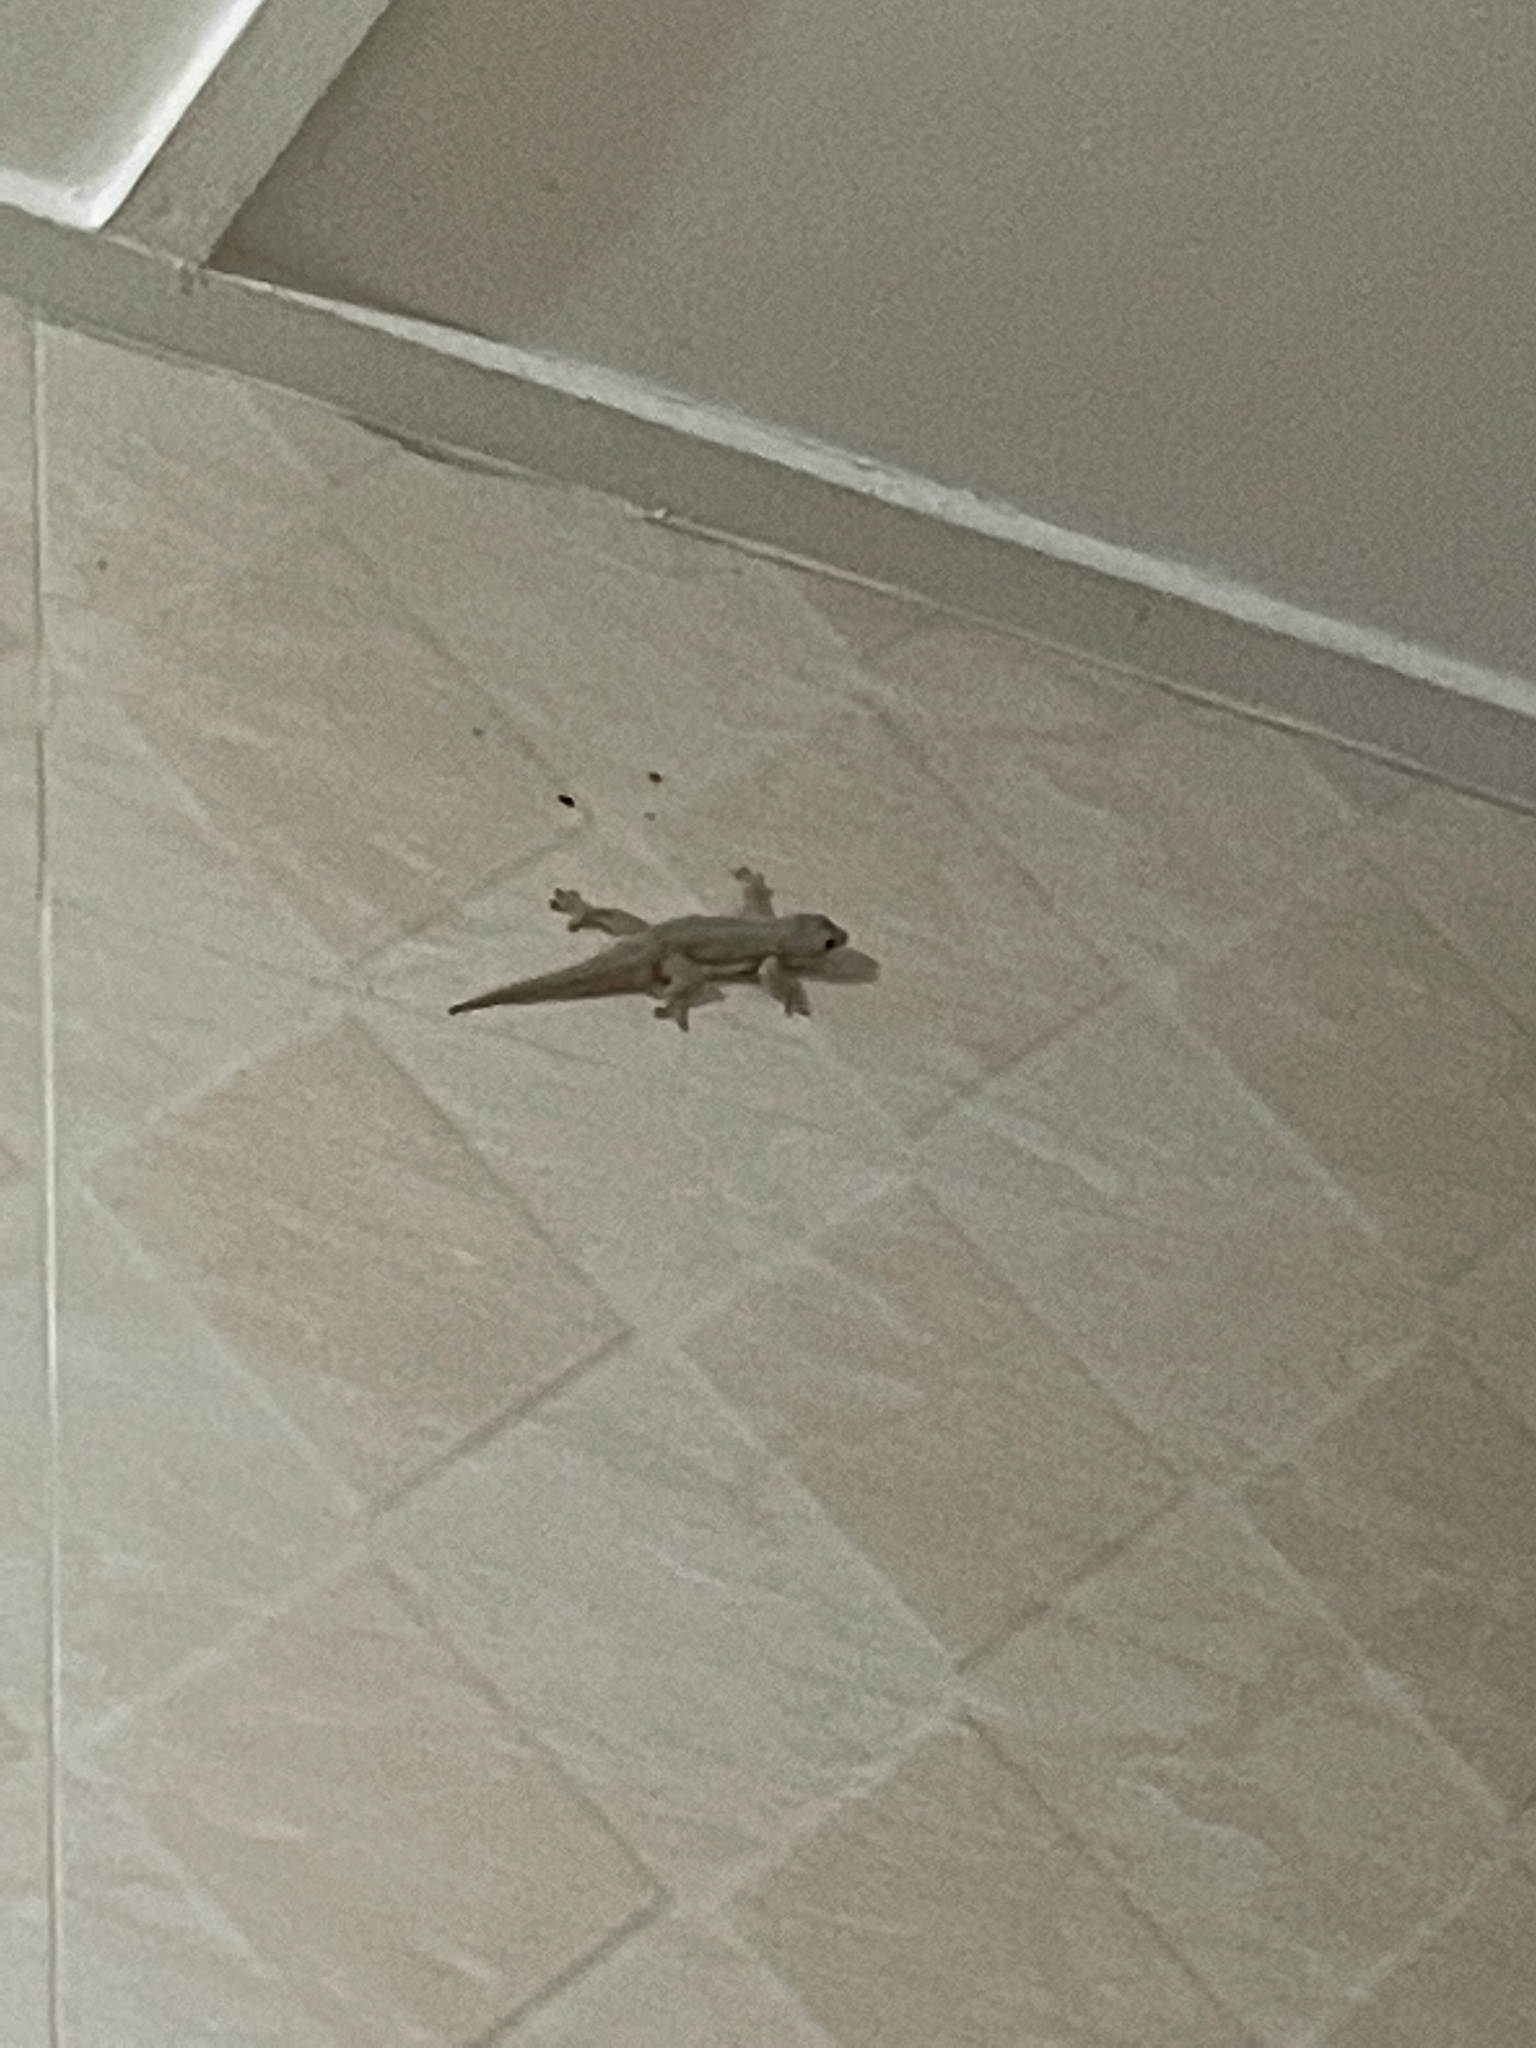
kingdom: Animalia
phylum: Chordata
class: Squamata
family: Gekkonidae
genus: Hemidactylus
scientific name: Hemidactylus platyurus
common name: Flat-tailed house gecko
